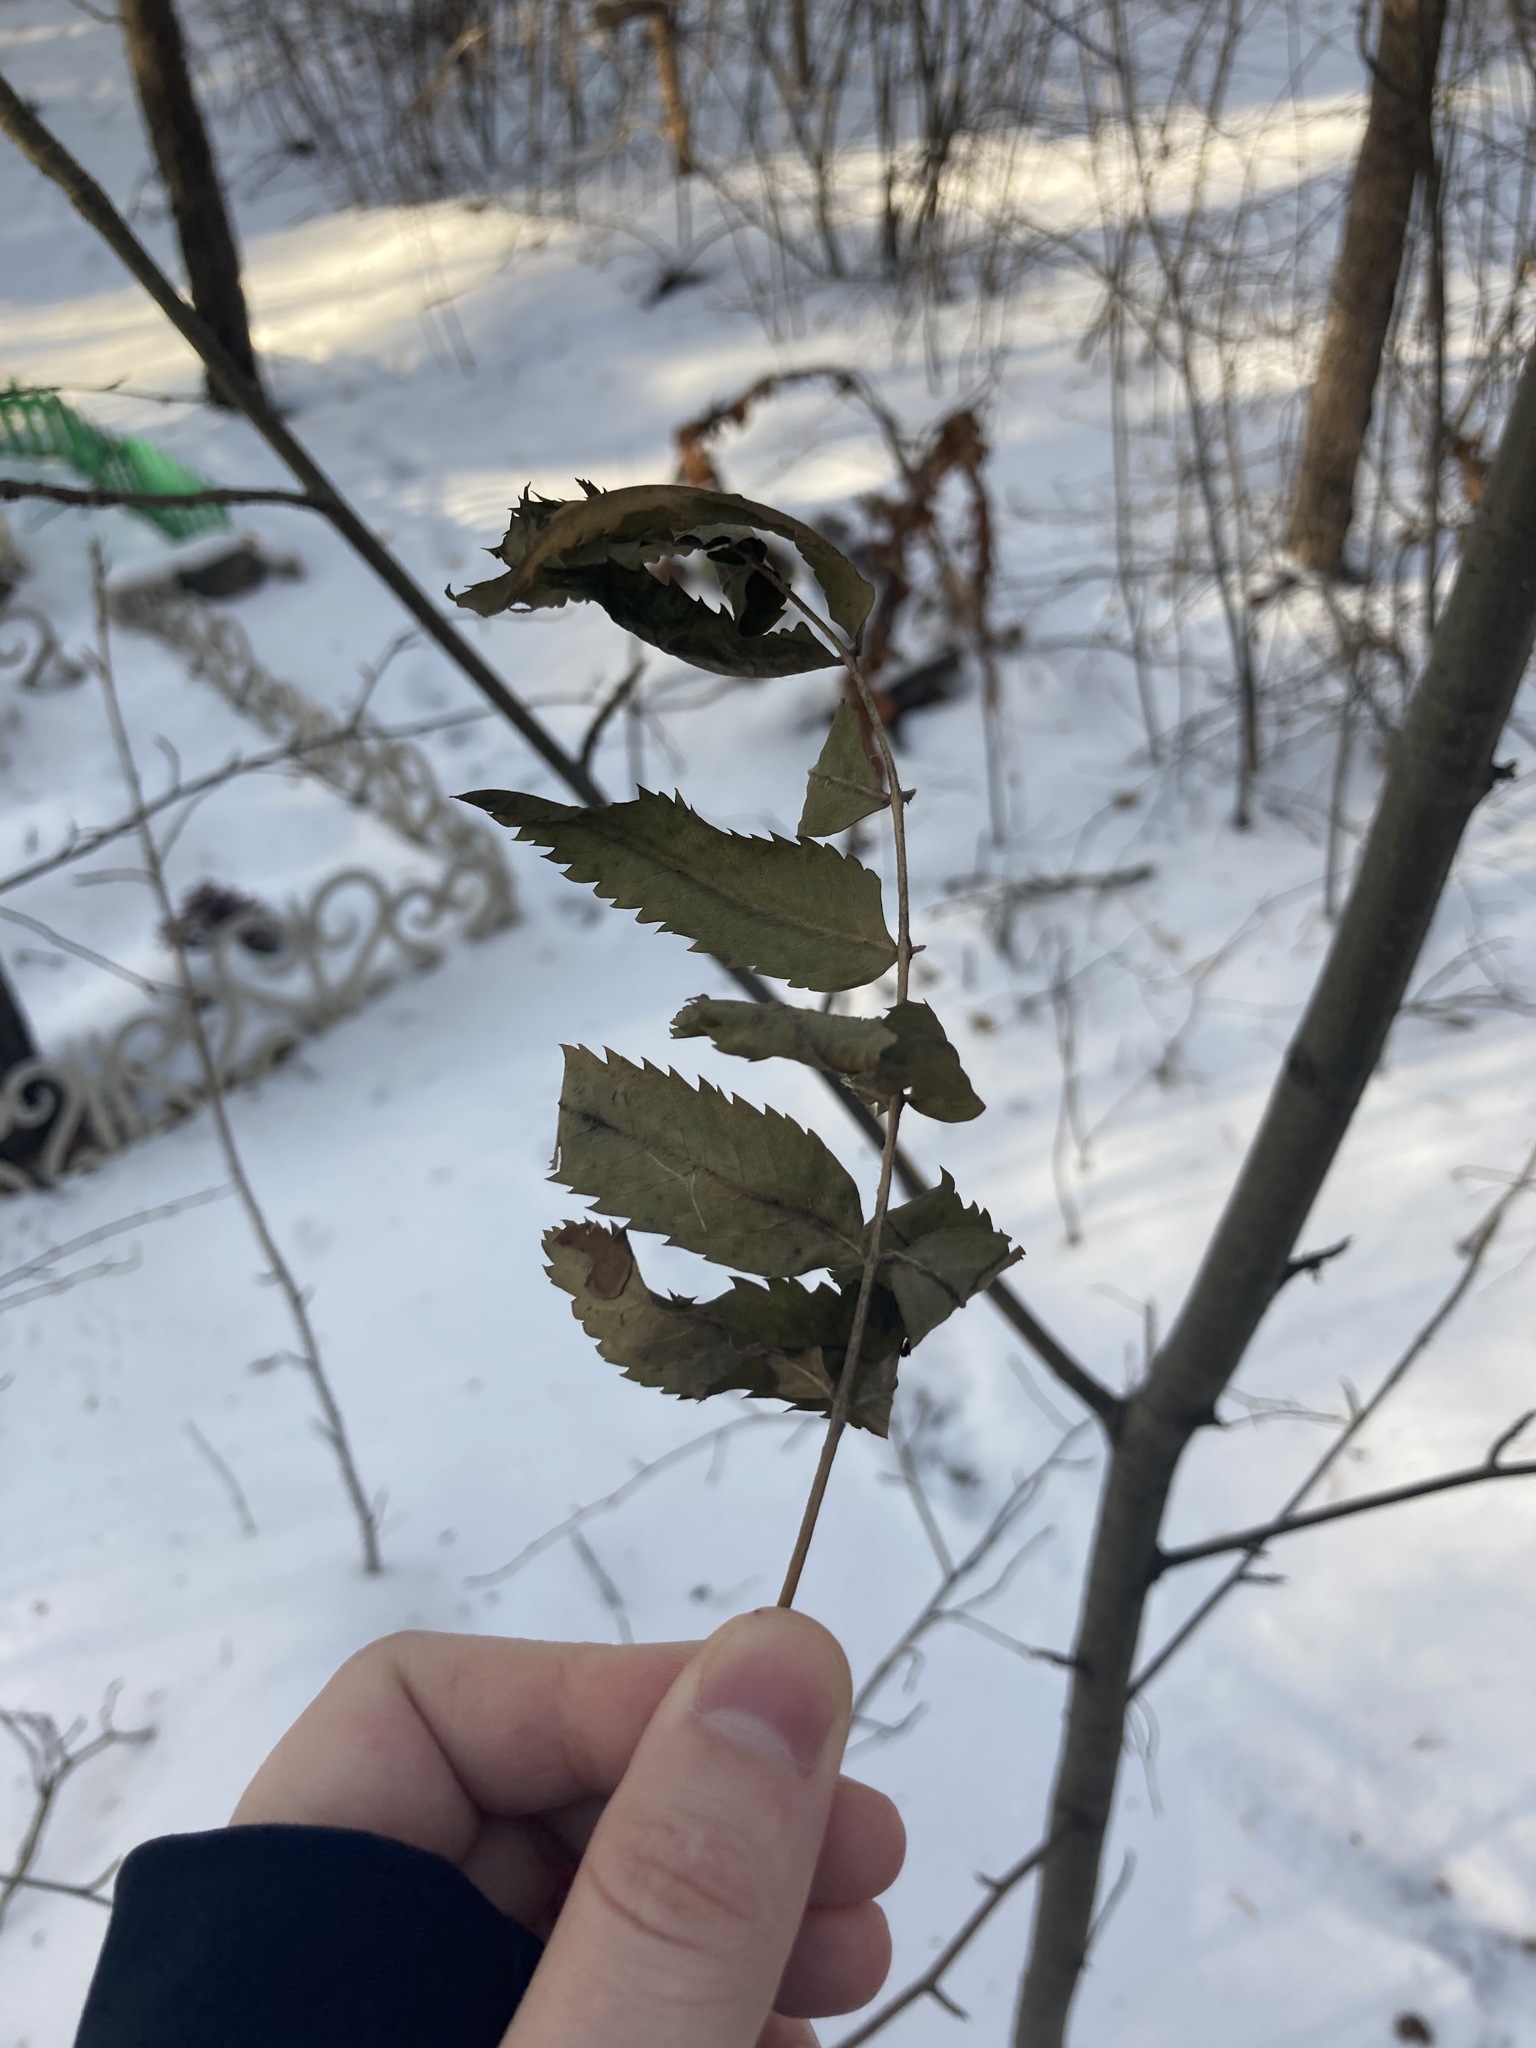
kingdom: Plantae
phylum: Tracheophyta
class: Magnoliopsida
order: Rosales
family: Rosaceae
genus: Sorbus
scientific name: Sorbus aucuparia
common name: Rowan
